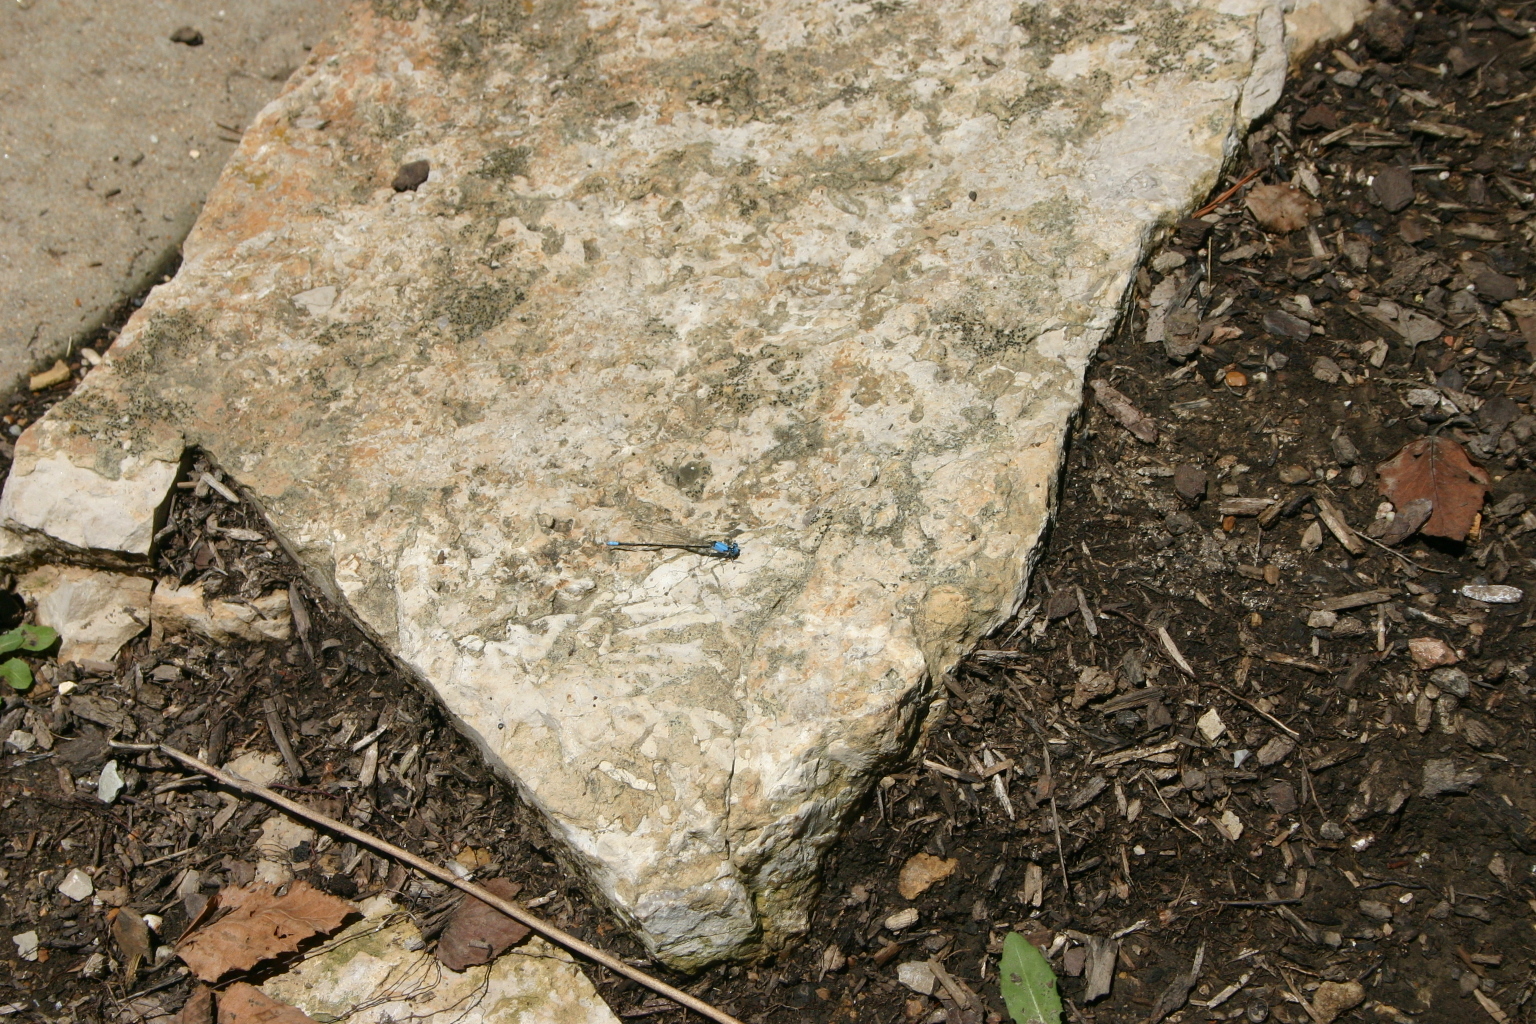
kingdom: Animalia
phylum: Arthropoda
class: Insecta
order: Odonata
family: Coenagrionidae
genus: Argia
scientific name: Argia apicalis
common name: Blue-fronted dancer
